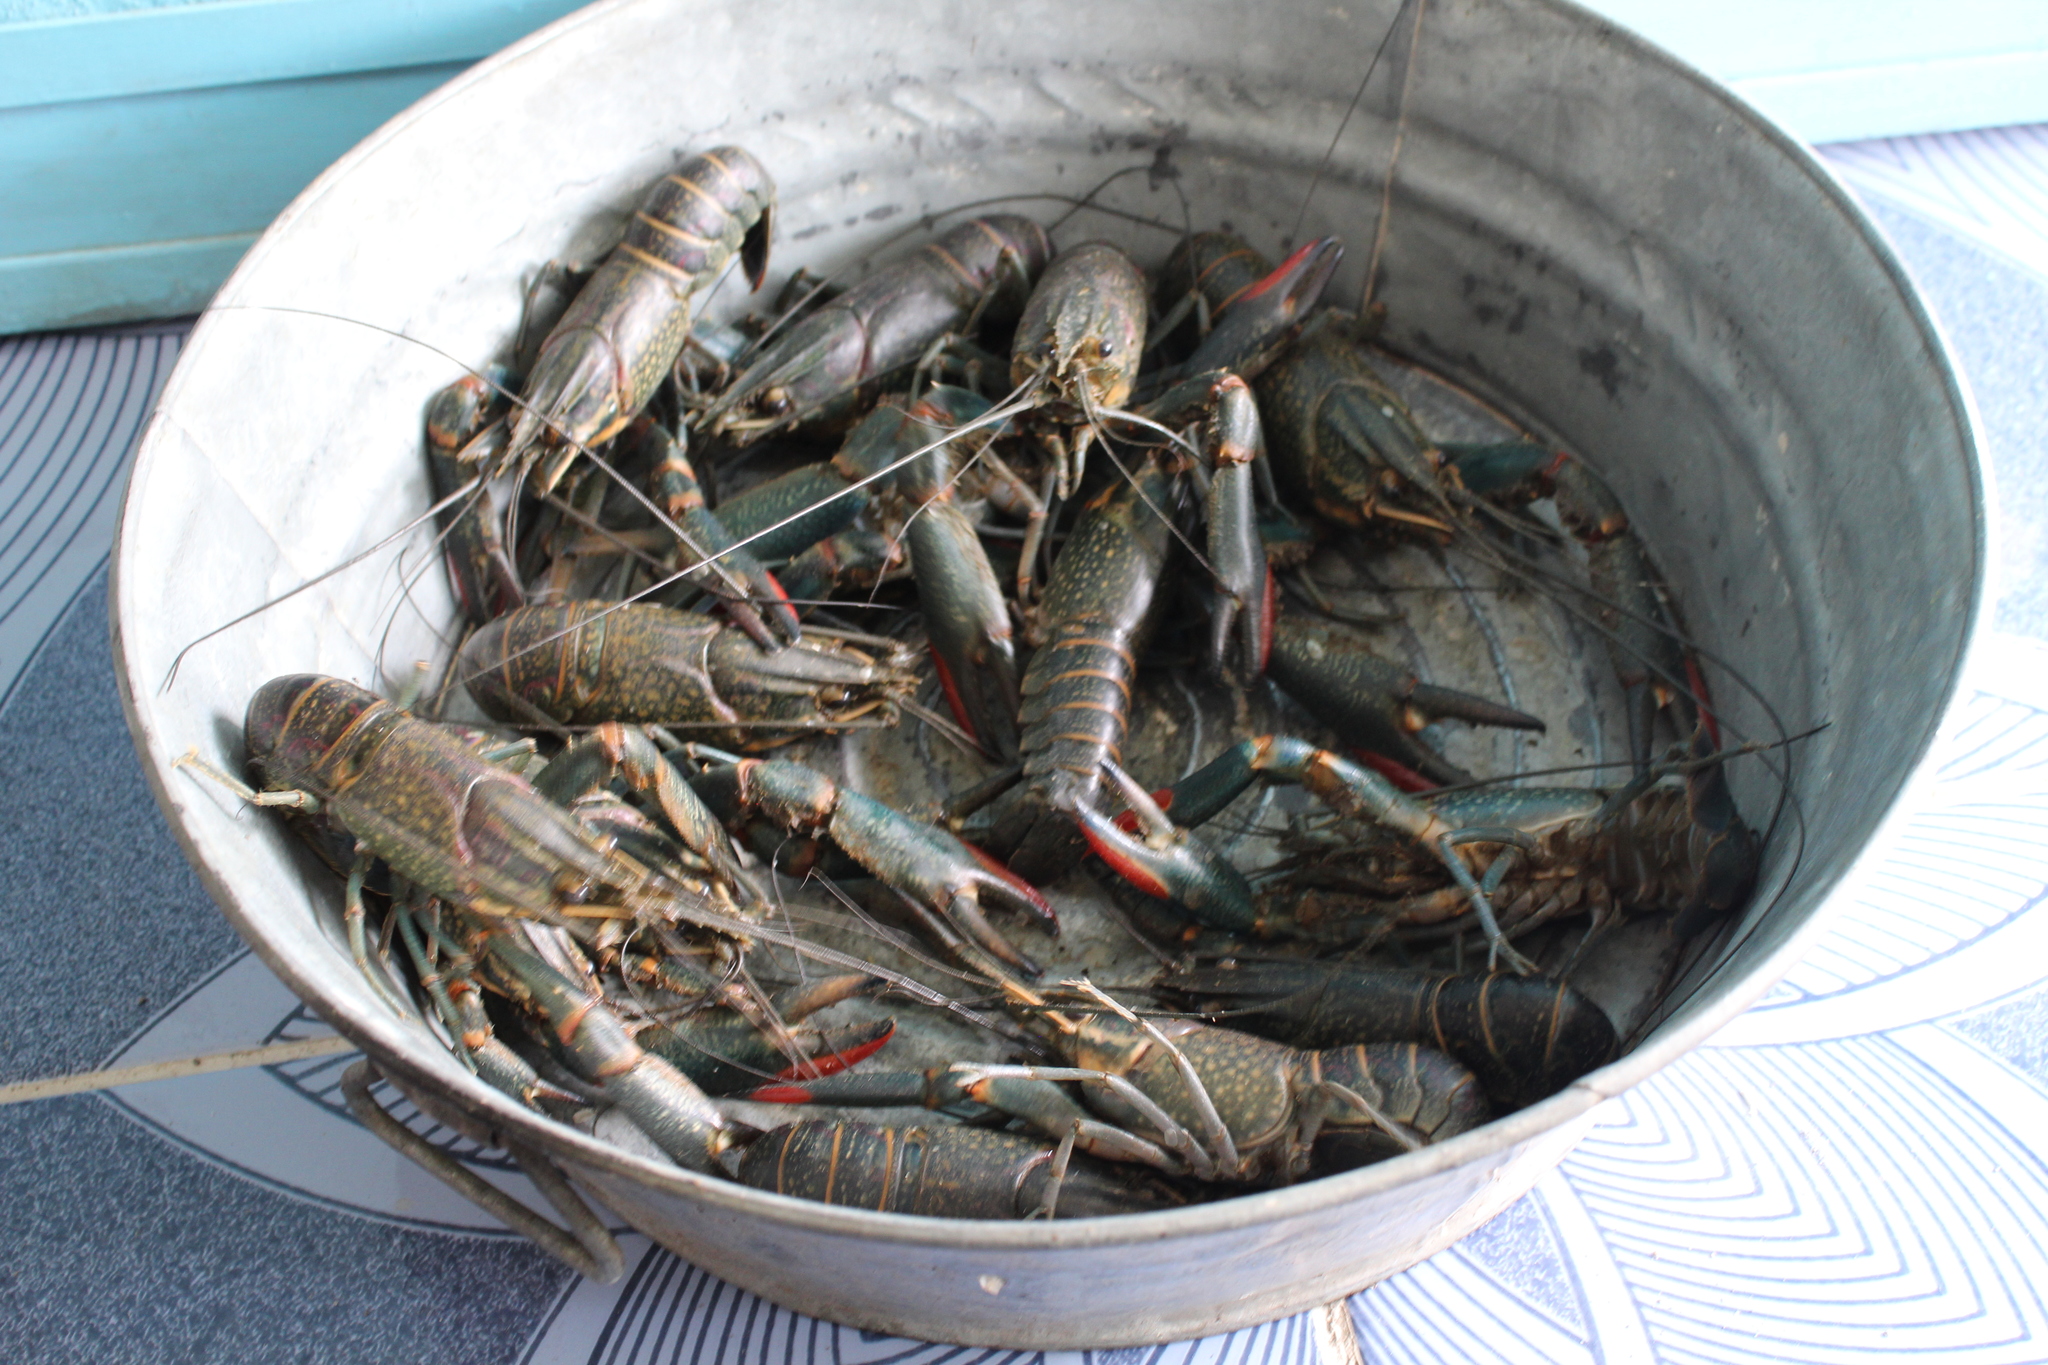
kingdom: Animalia
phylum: Arthropoda
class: Malacostraca
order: Decapoda
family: Parastacidae
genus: Cherax
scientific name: Cherax quadricarinatus
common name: Redclaw
